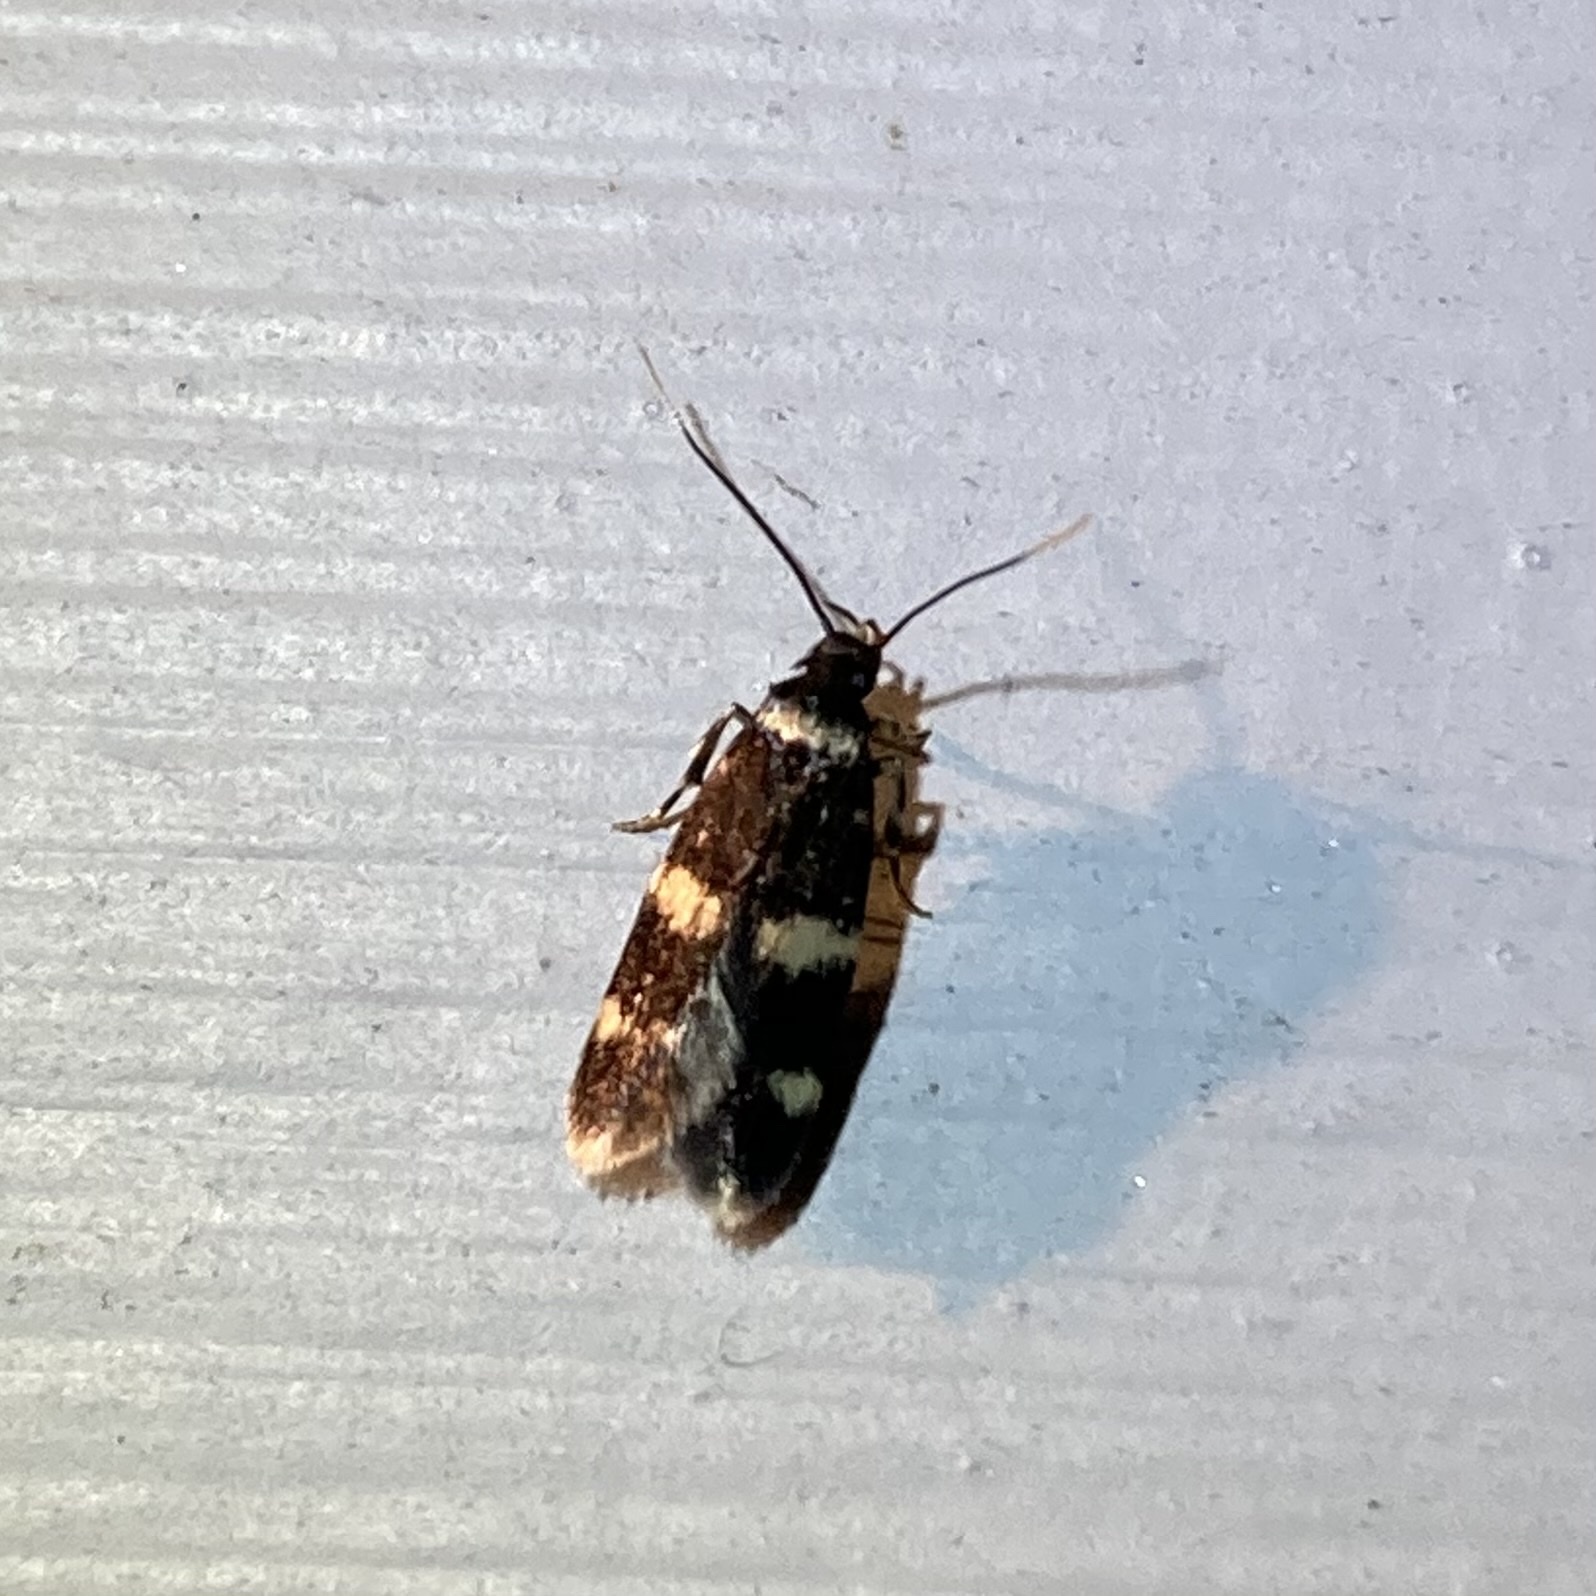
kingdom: Animalia
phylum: Arthropoda
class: Insecta
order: Lepidoptera
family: Autostichidae
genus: Oegoconia
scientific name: Oegoconia
